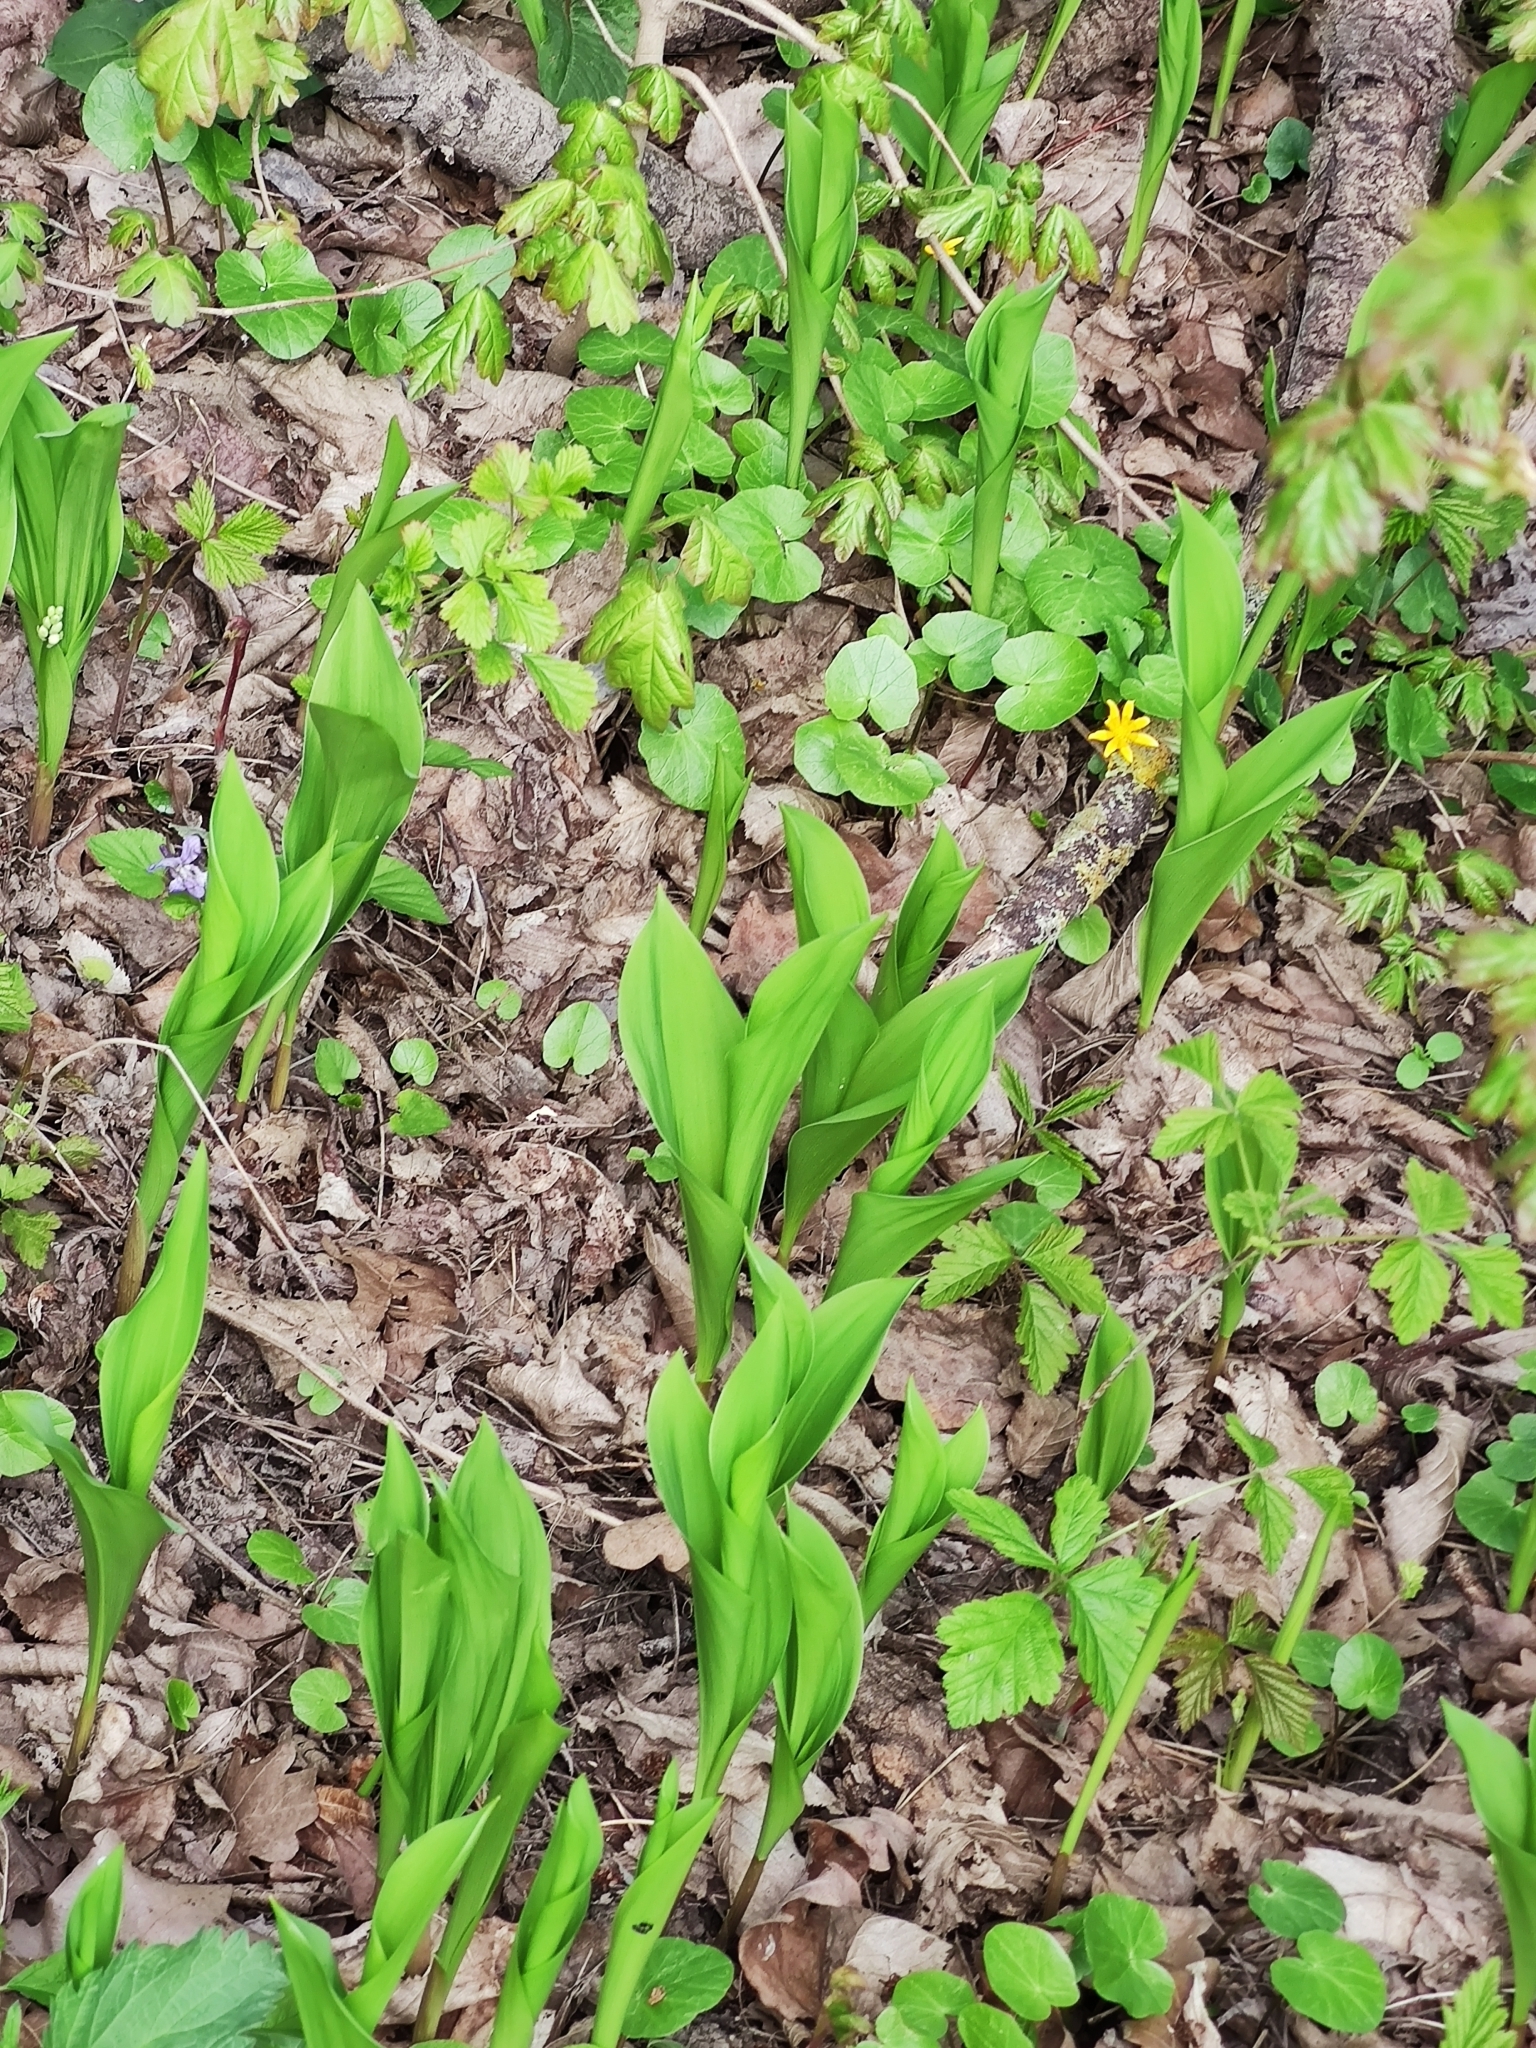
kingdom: Plantae
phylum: Tracheophyta
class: Liliopsida
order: Asparagales
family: Asparagaceae
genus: Convallaria
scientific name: Convallaria majalis
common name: Lily-of-the-valley
